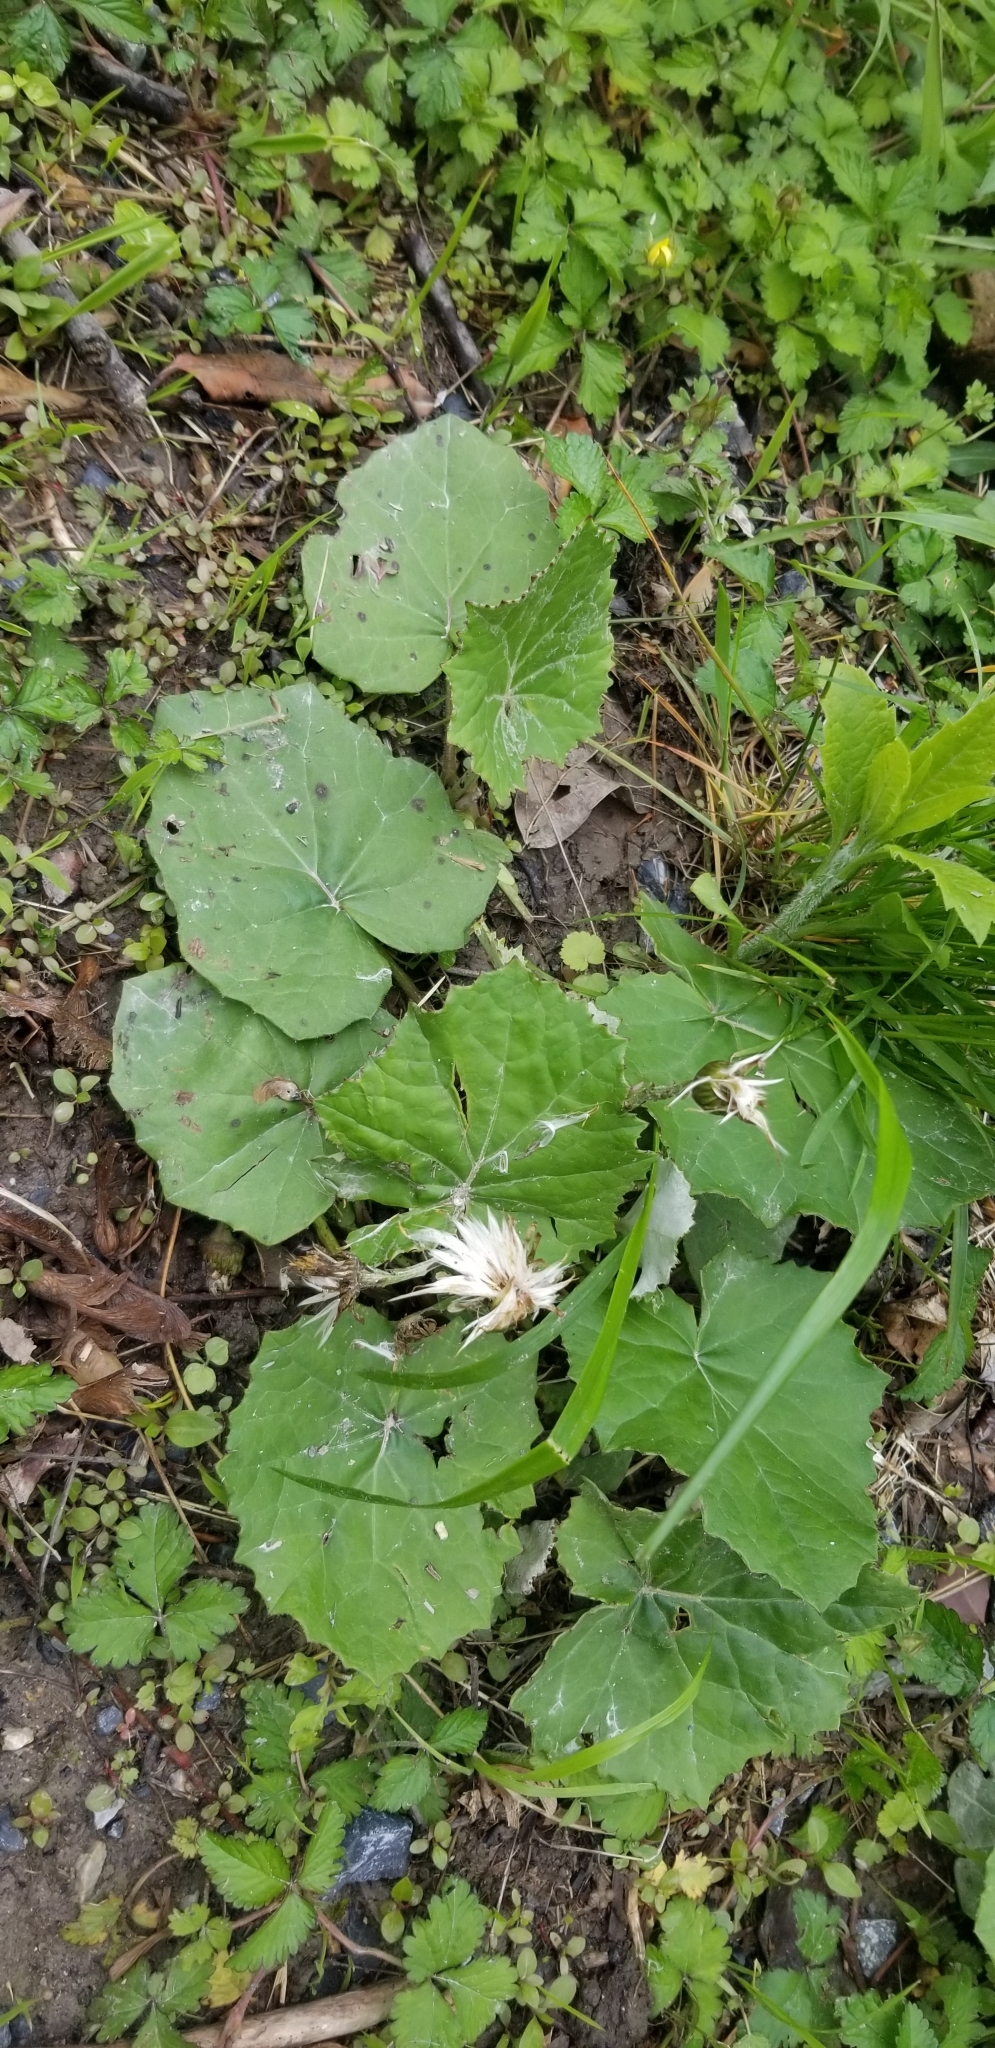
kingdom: Plantae
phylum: Tracheophyta
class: Magnoliopsida
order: Asterales
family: Asteraceae
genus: Tussilago
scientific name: Tussilago farfara
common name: Coltsfoot
